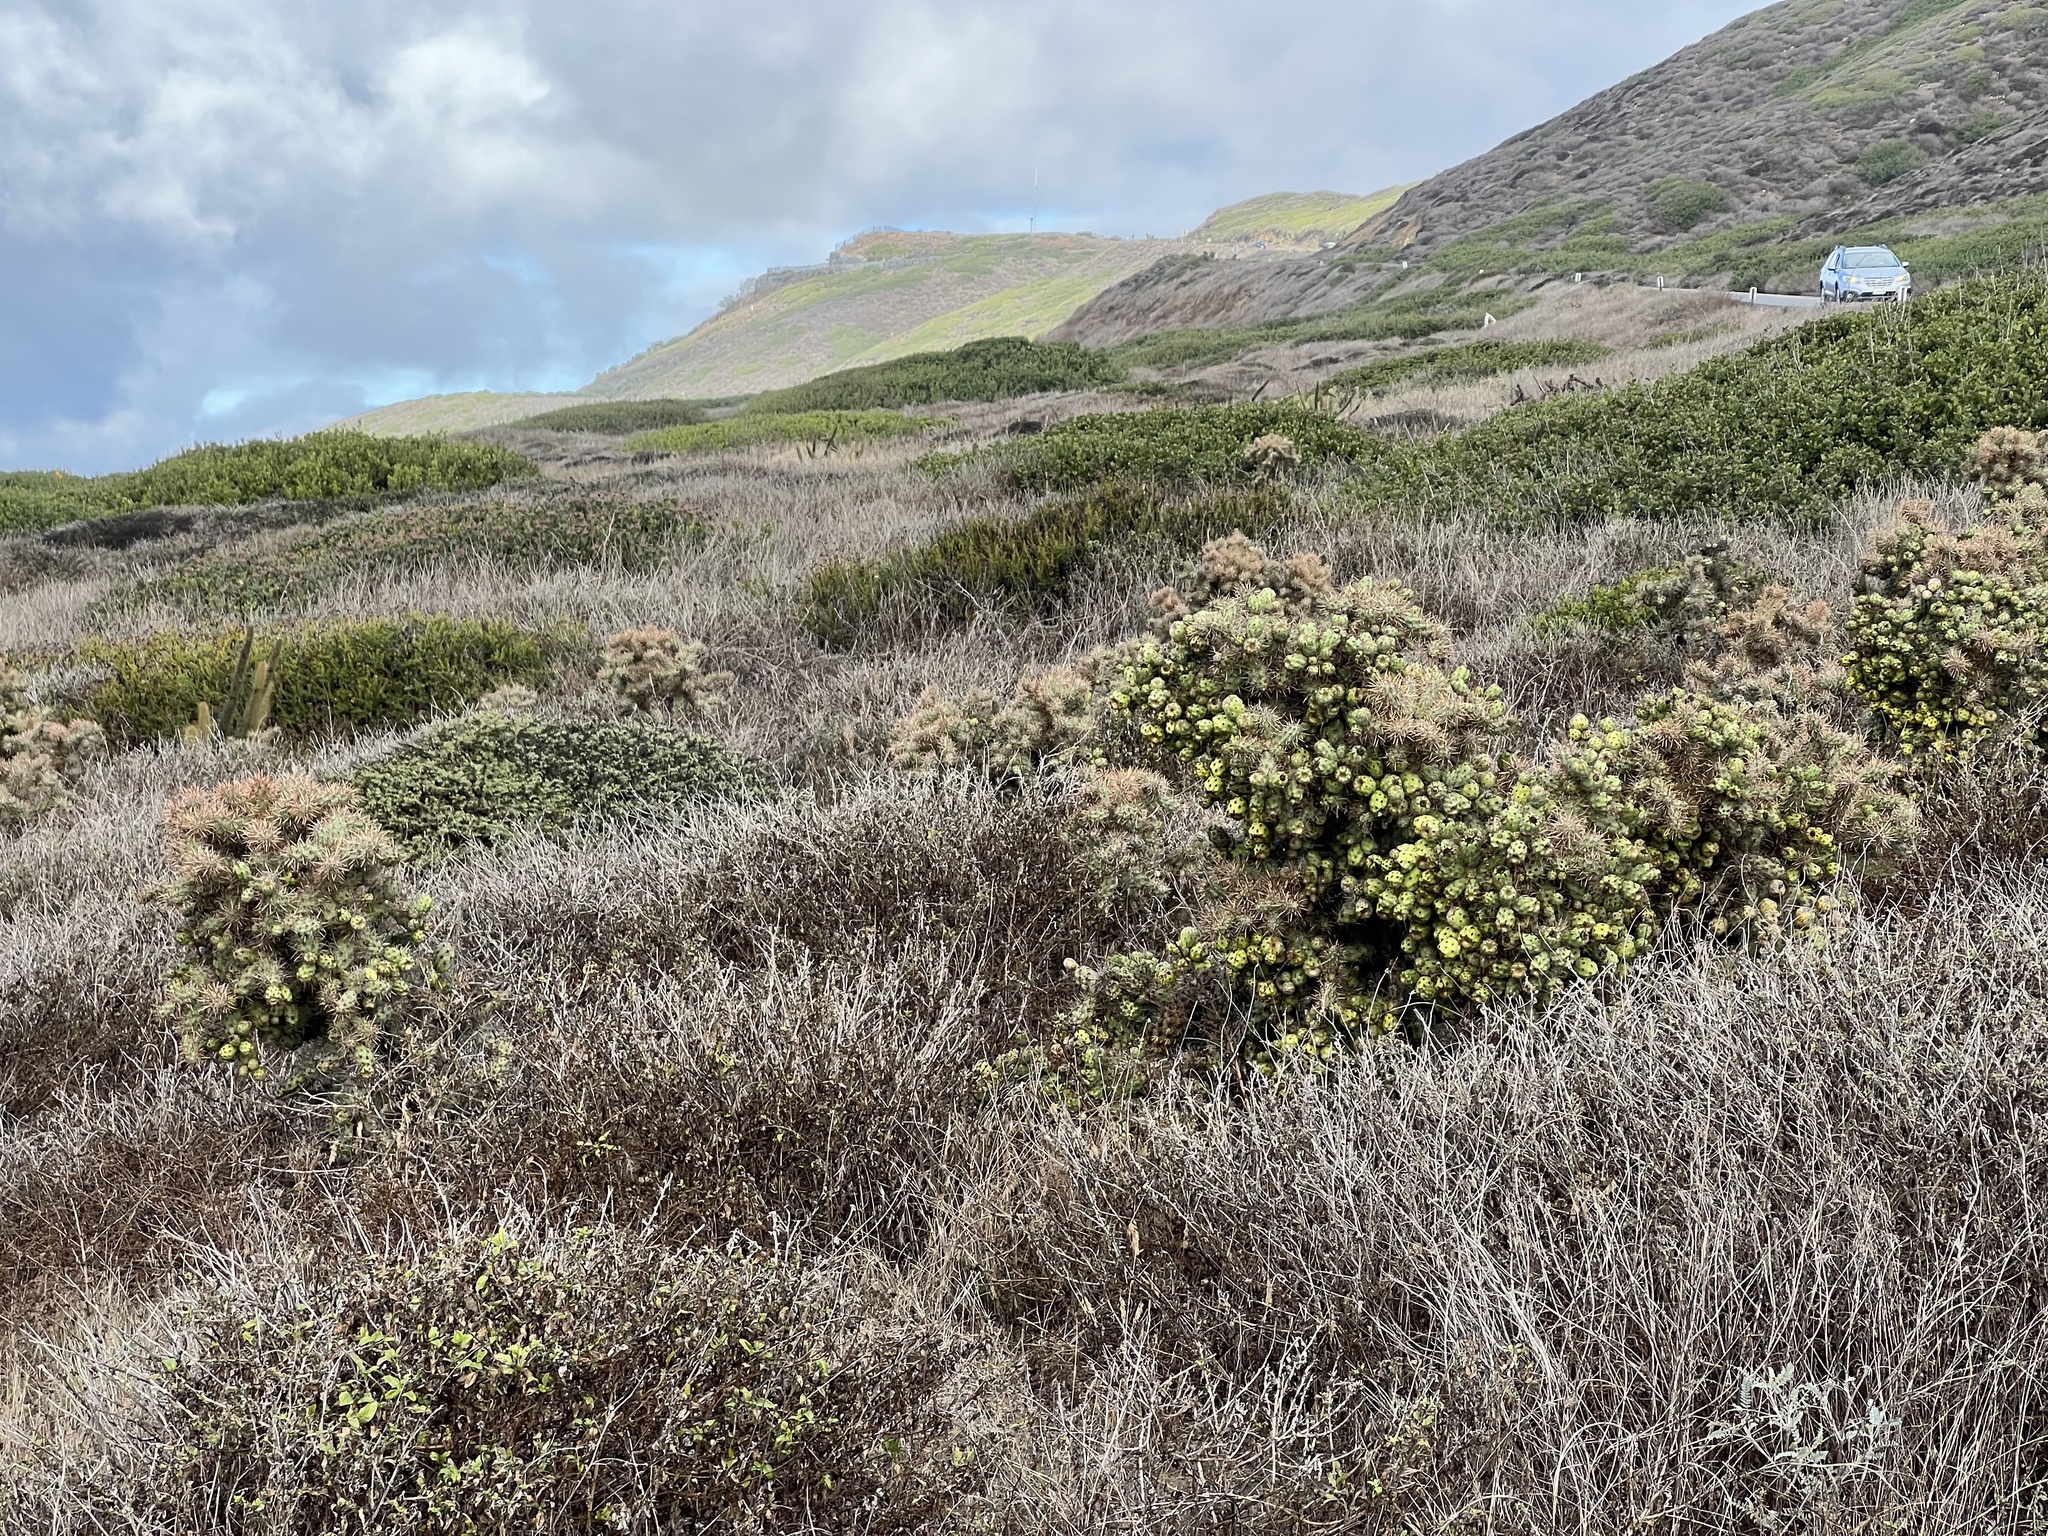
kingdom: Plantae
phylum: Tracheophyta
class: Magnoliopsida
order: Caryophyllales
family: Cactaceae
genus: Cylindropuntia
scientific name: Cylindropuntia prolifera
